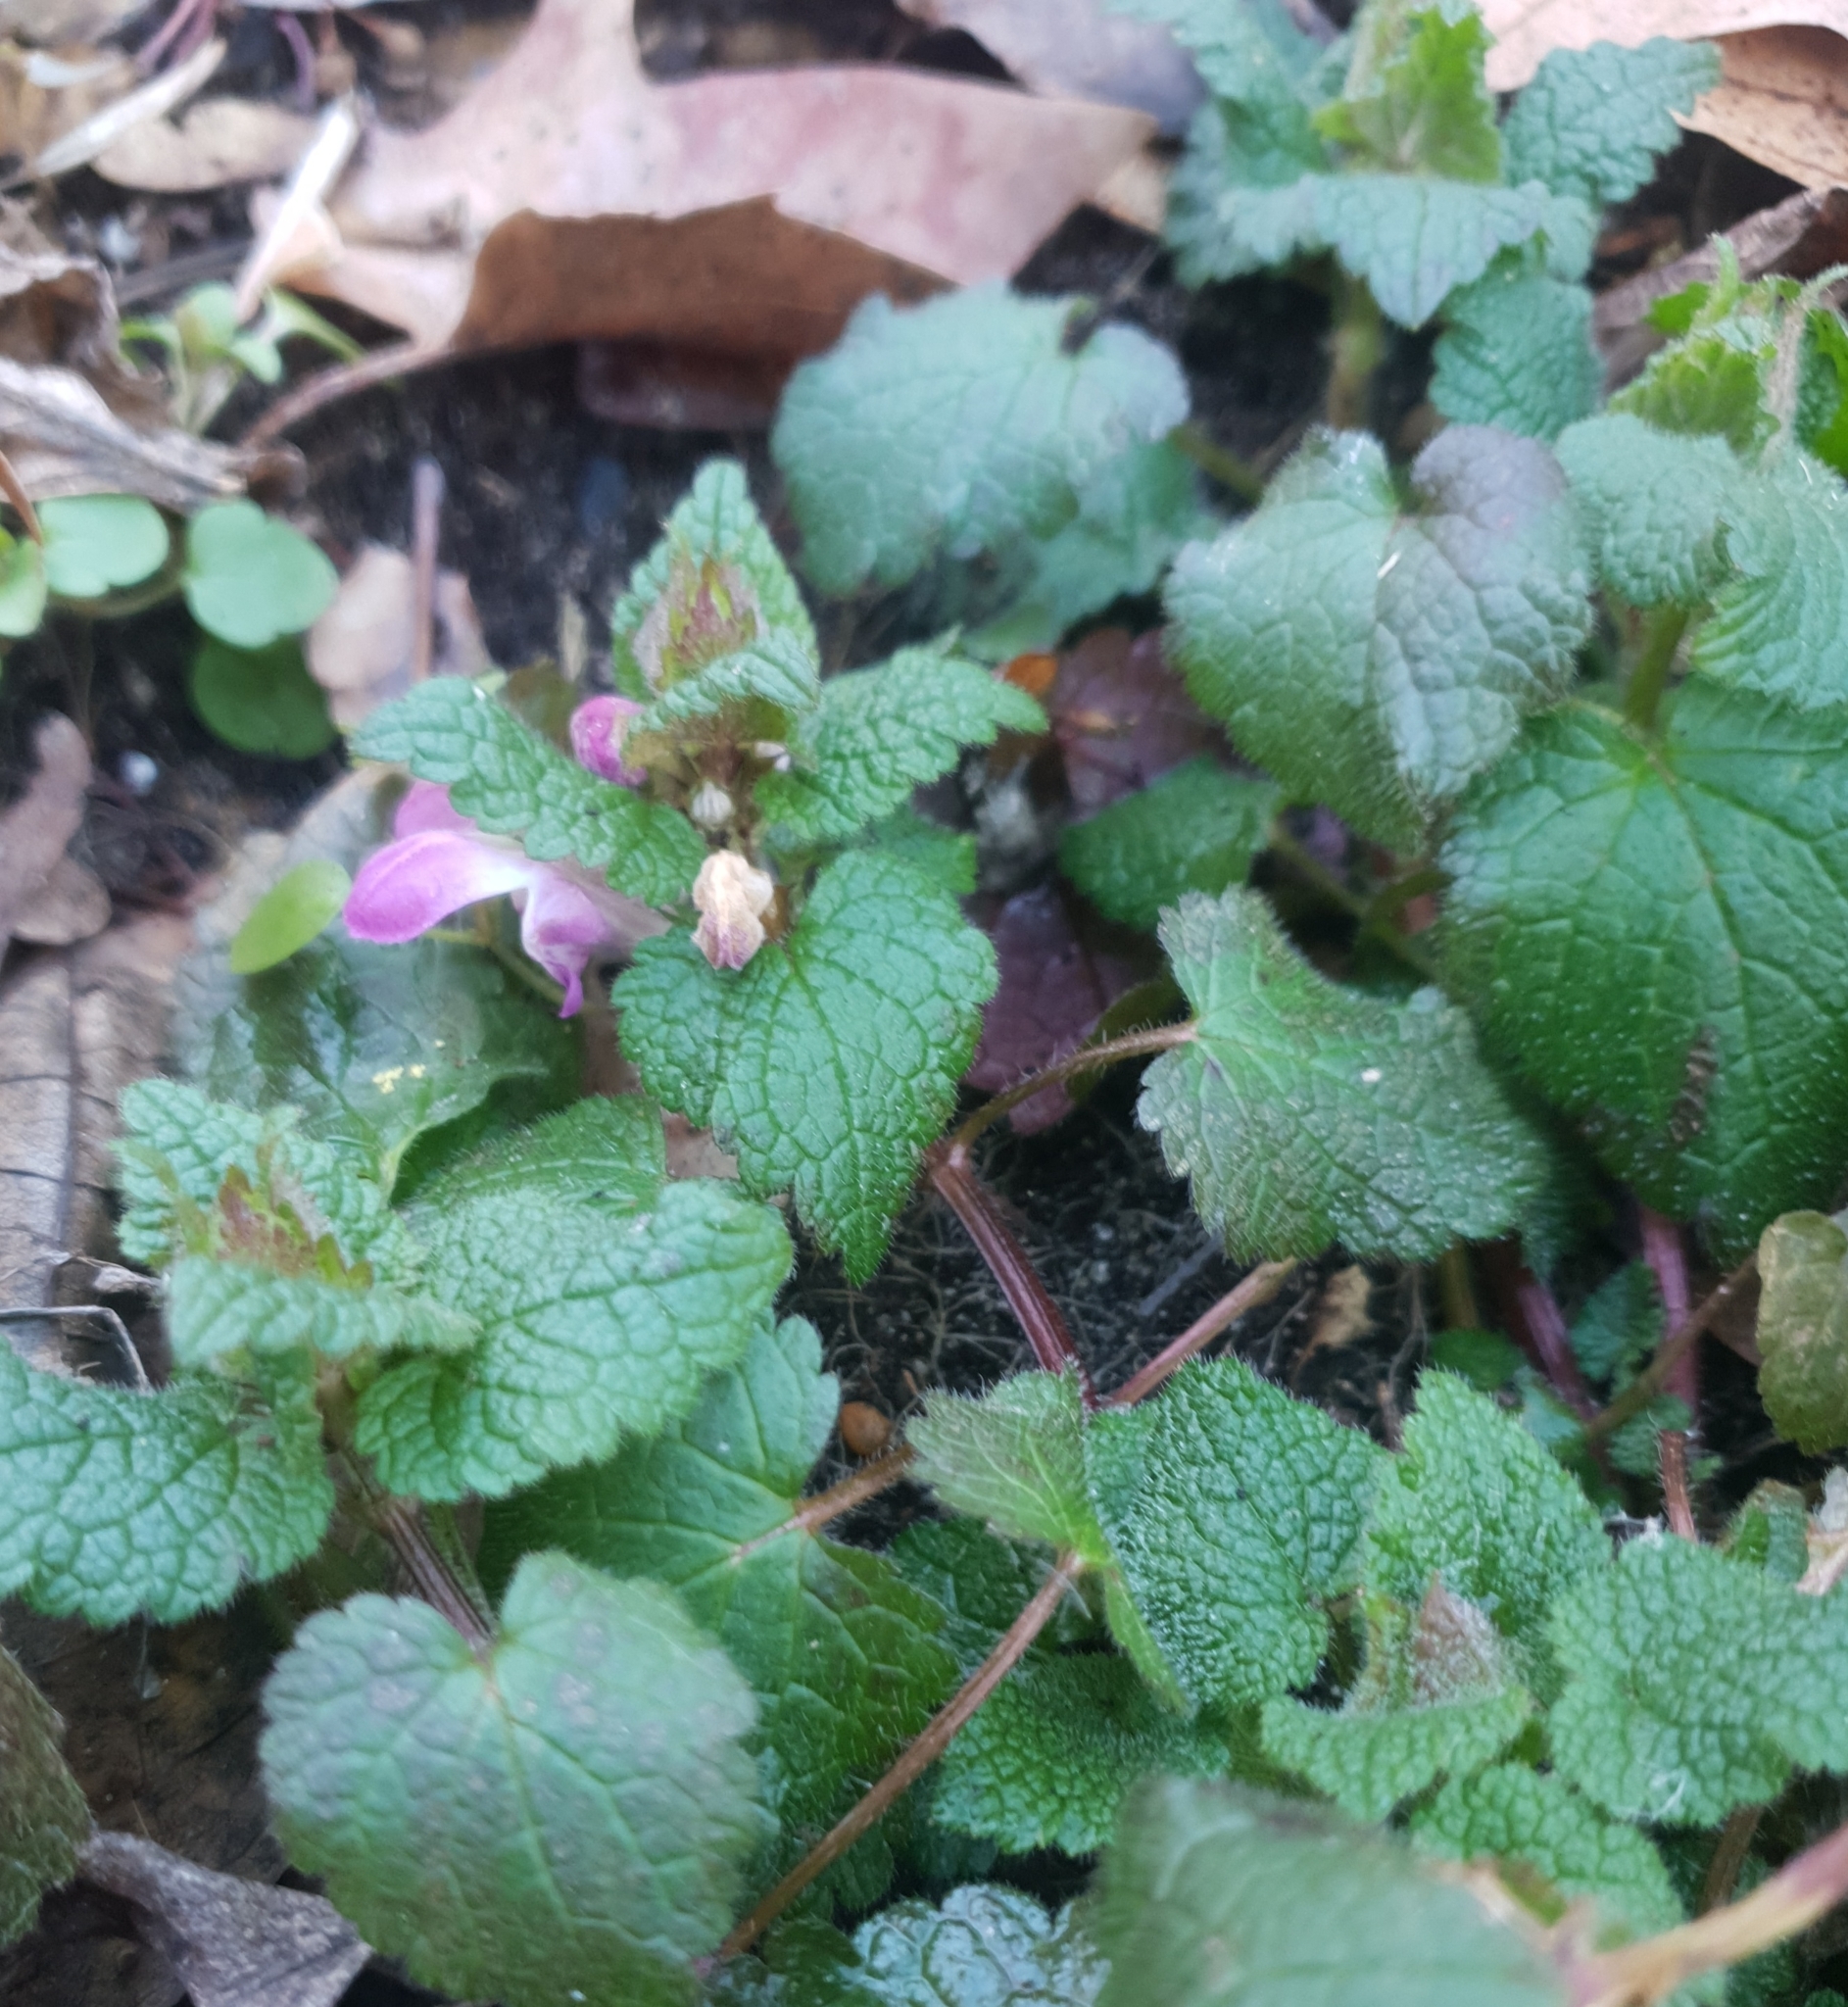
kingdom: Plantae
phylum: Tracheophyta
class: Magnoliopsida
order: Lamiales
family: Lamiaceae
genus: Lamium
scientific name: Lamium maculatum
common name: Spotted dead-nettle
